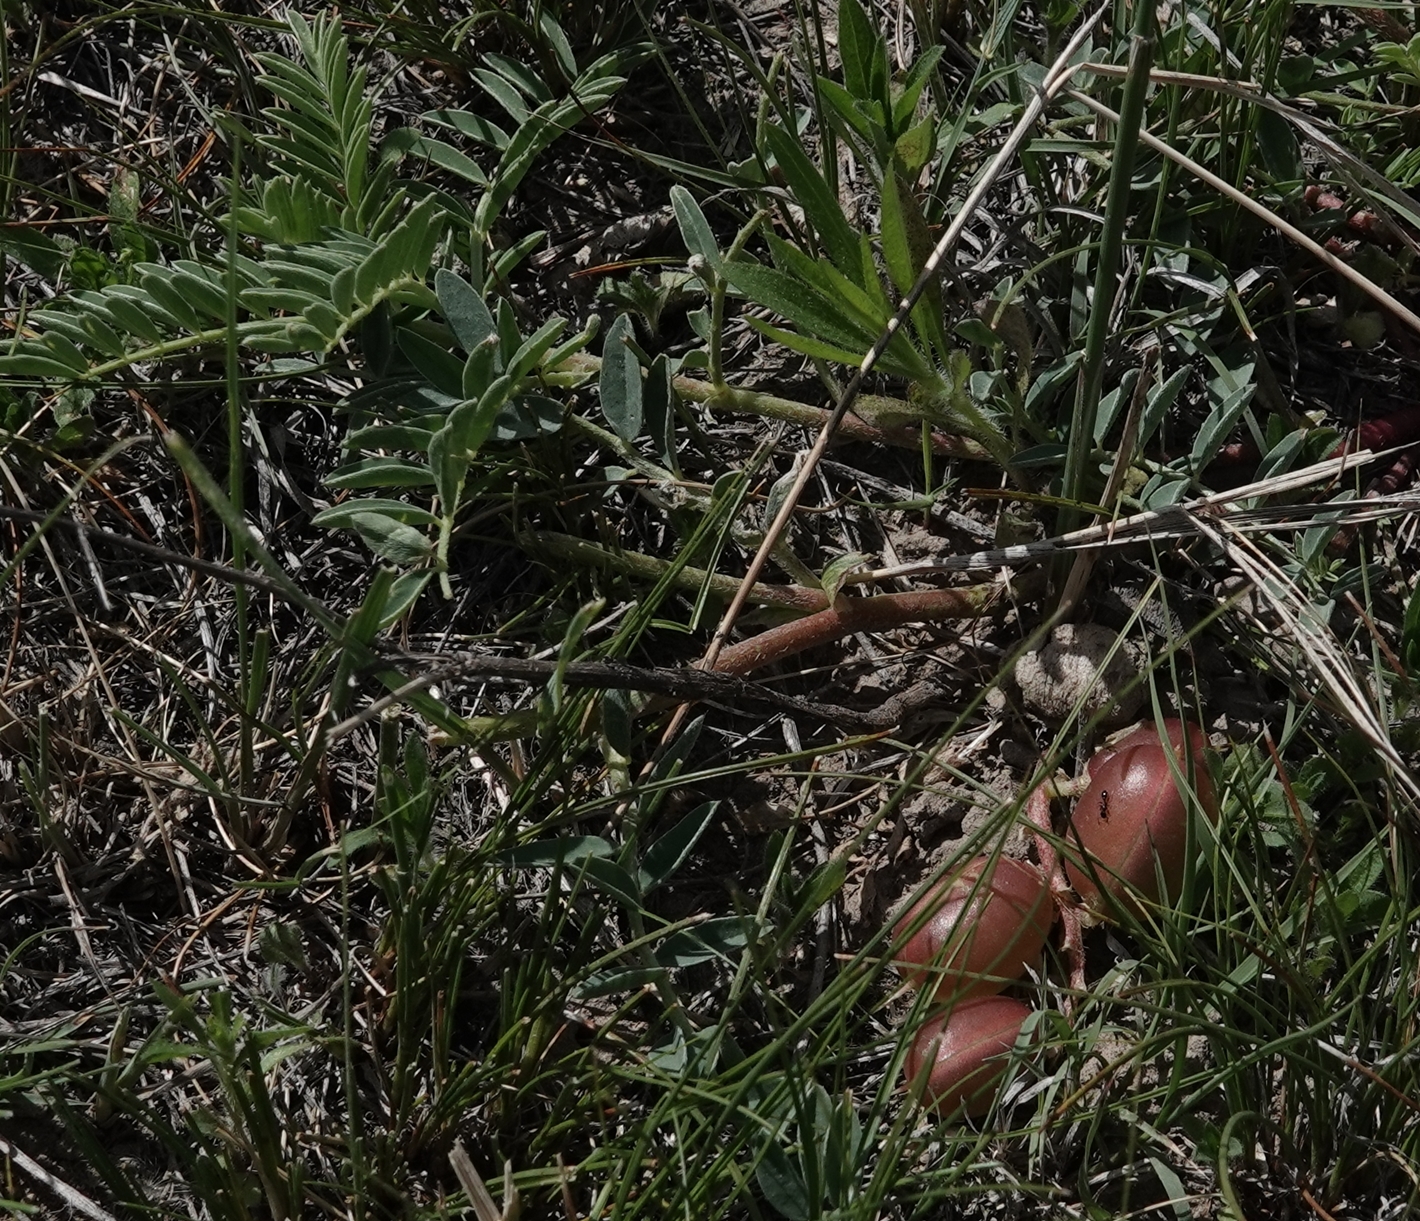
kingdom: Plantae
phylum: Tracheophyta
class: Magnoliopsida
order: Fabales
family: Fabaceae
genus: Astragalus
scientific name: Astragalus crassicarpus
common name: Ground-plum milk-vetch
